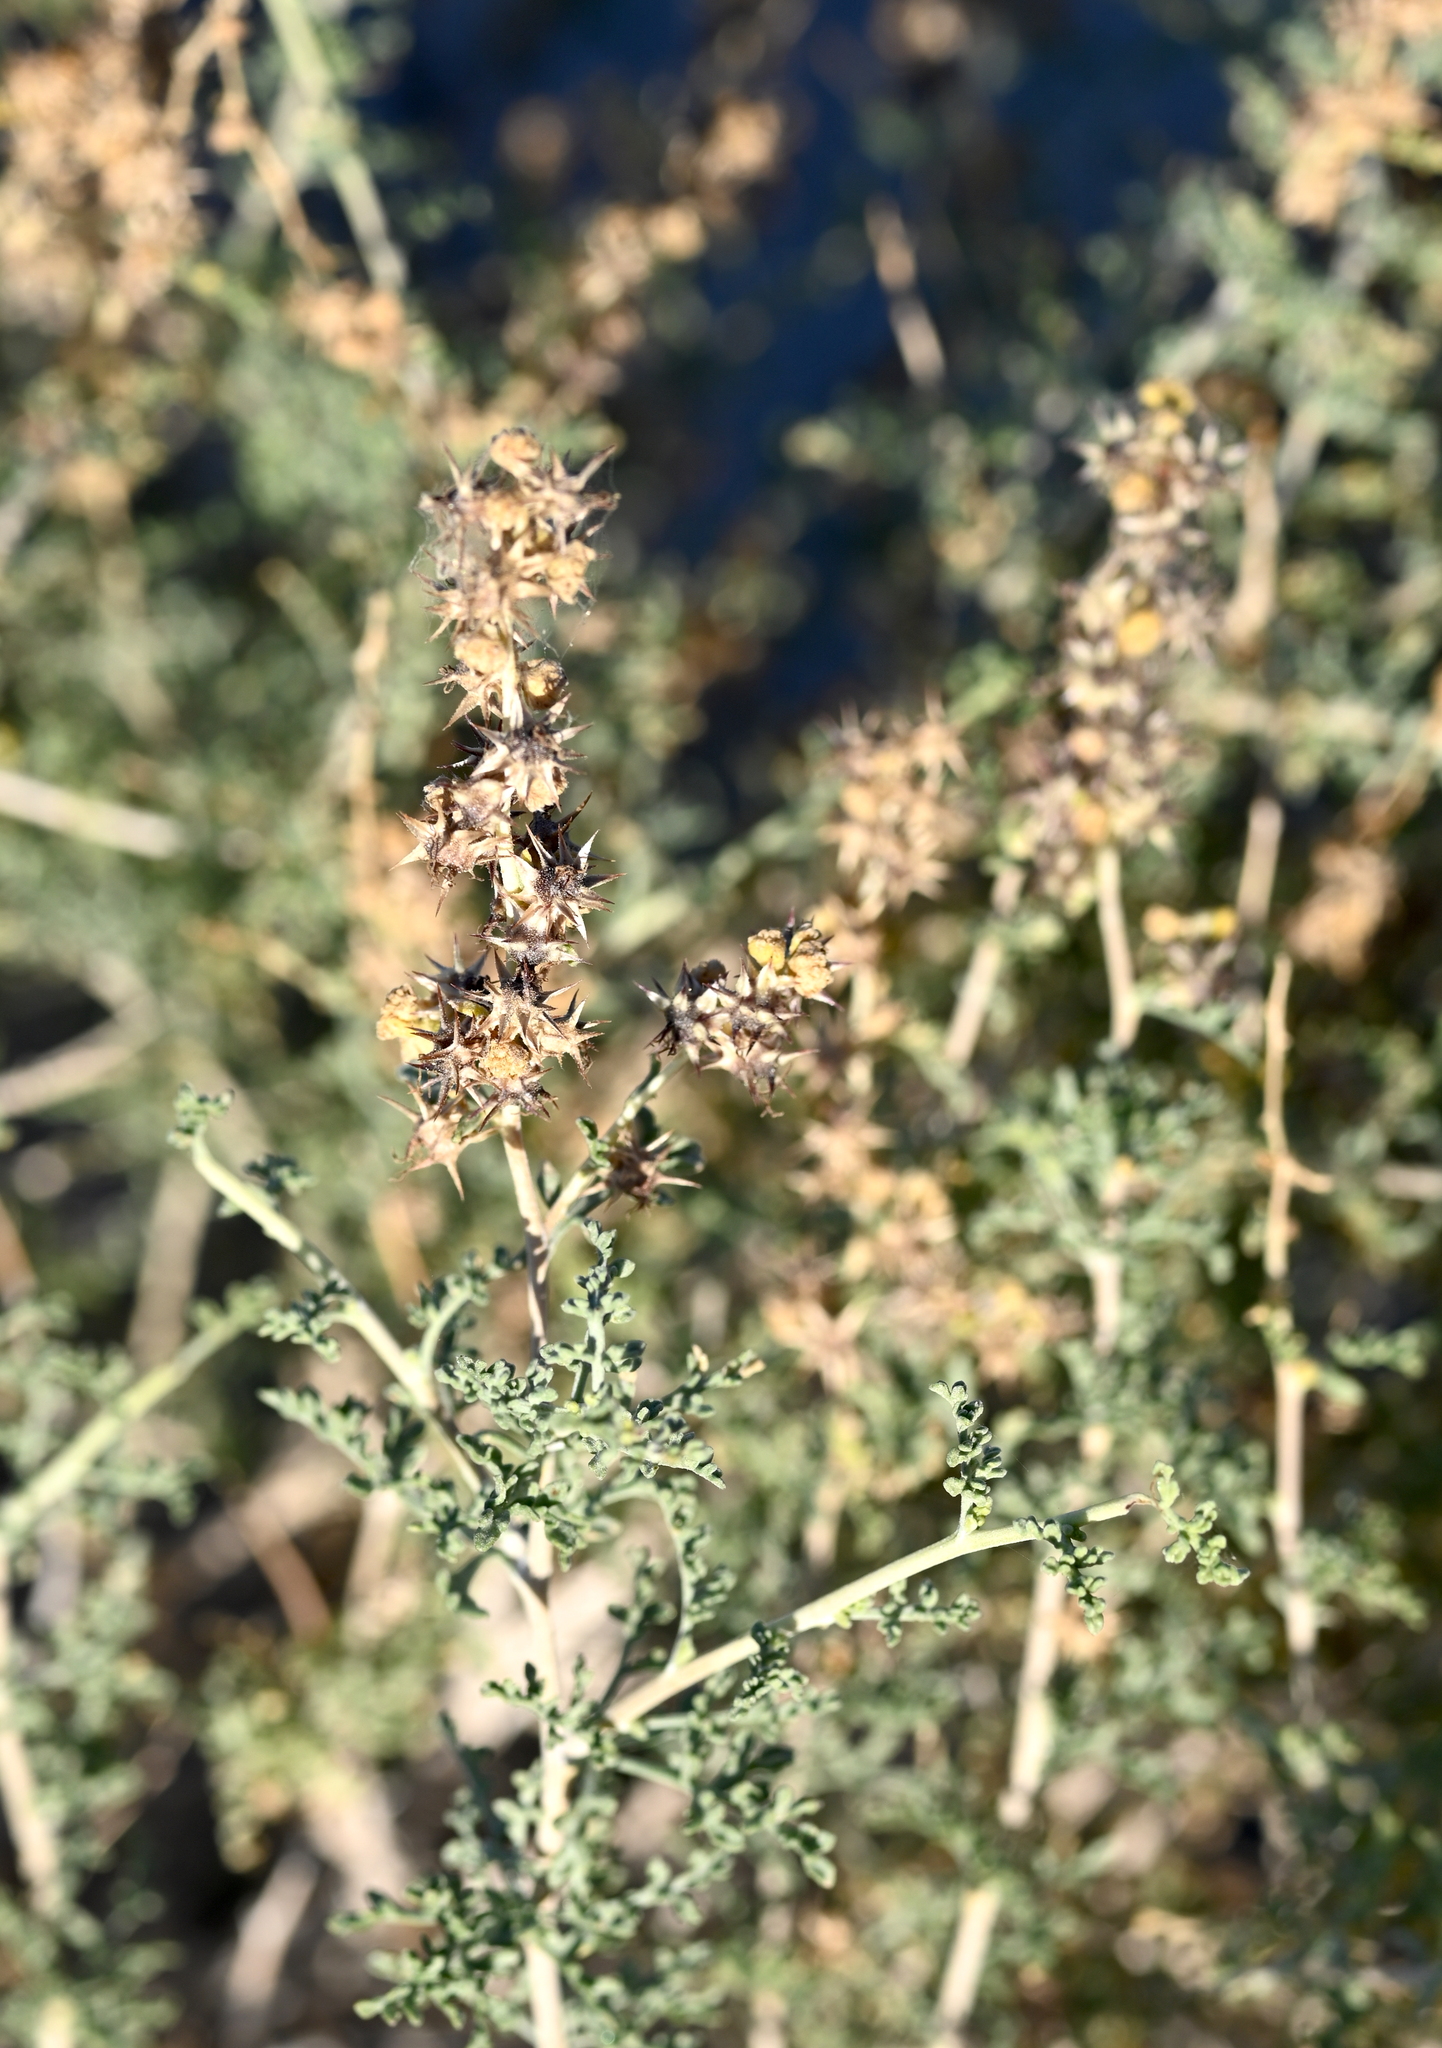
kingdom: Plantae
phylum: Tracheophyta
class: Magnoliopsida
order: Asterales
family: Asteraceae
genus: Ambrosia
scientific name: Ambrosia dumosa
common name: Bur-sage
